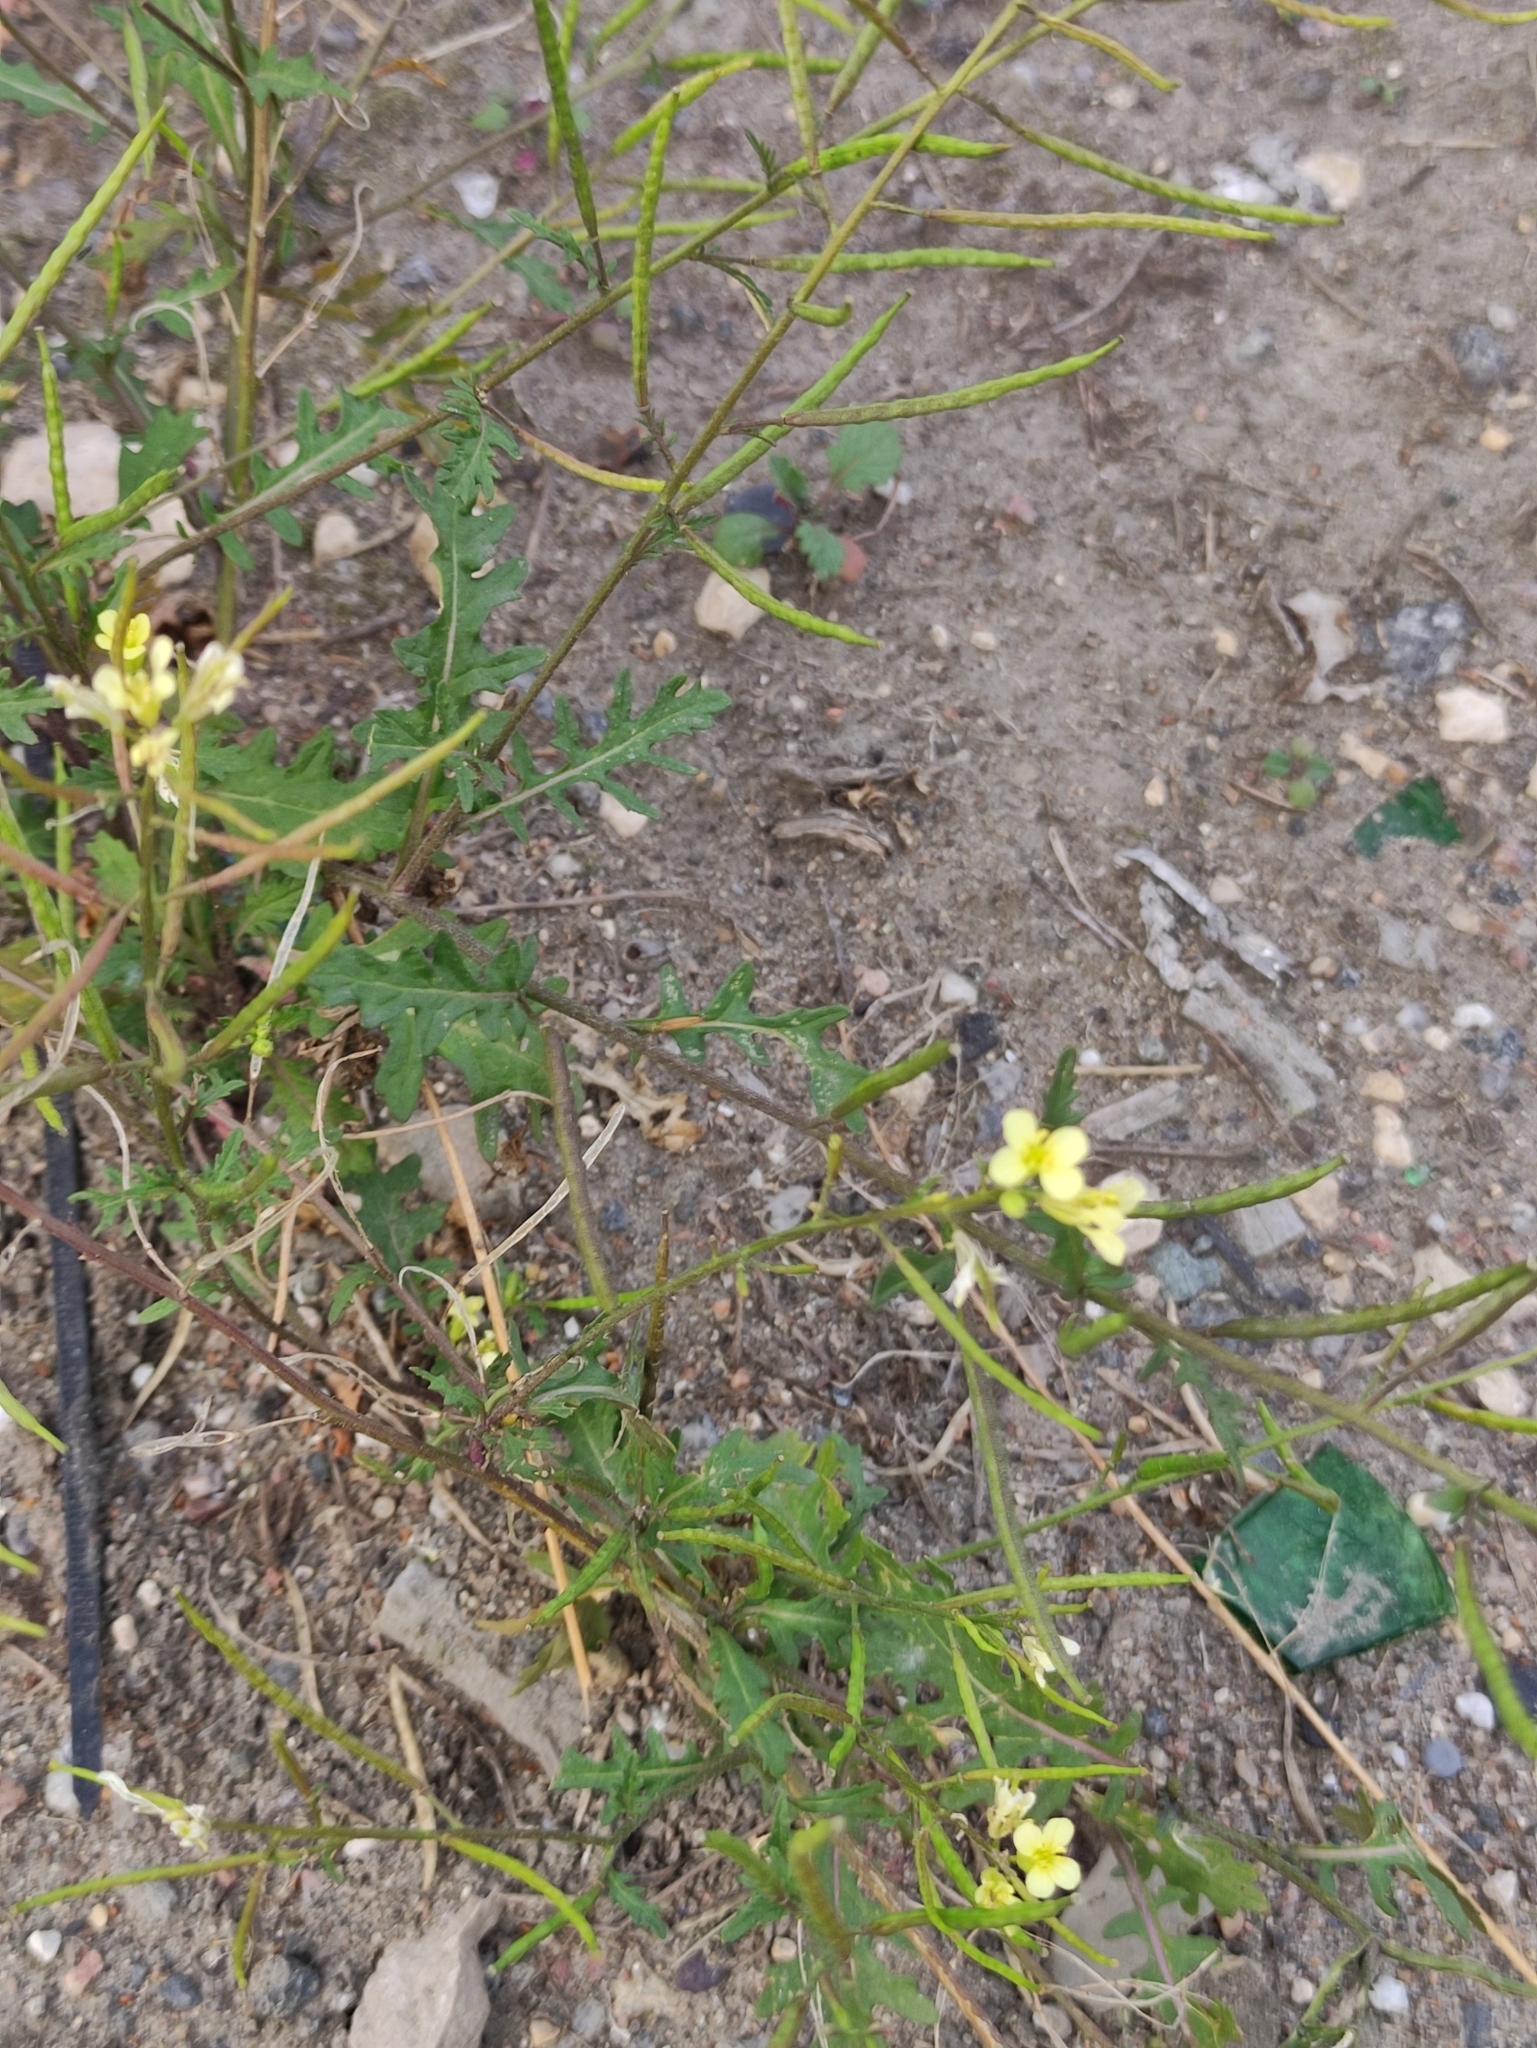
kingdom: Plantae
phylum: Tracheophyta
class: Magnoliopsida
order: Brassicales
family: Brassicaceae
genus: Erucastrum
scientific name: Erucastrum gallicum
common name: Hairy rocket
